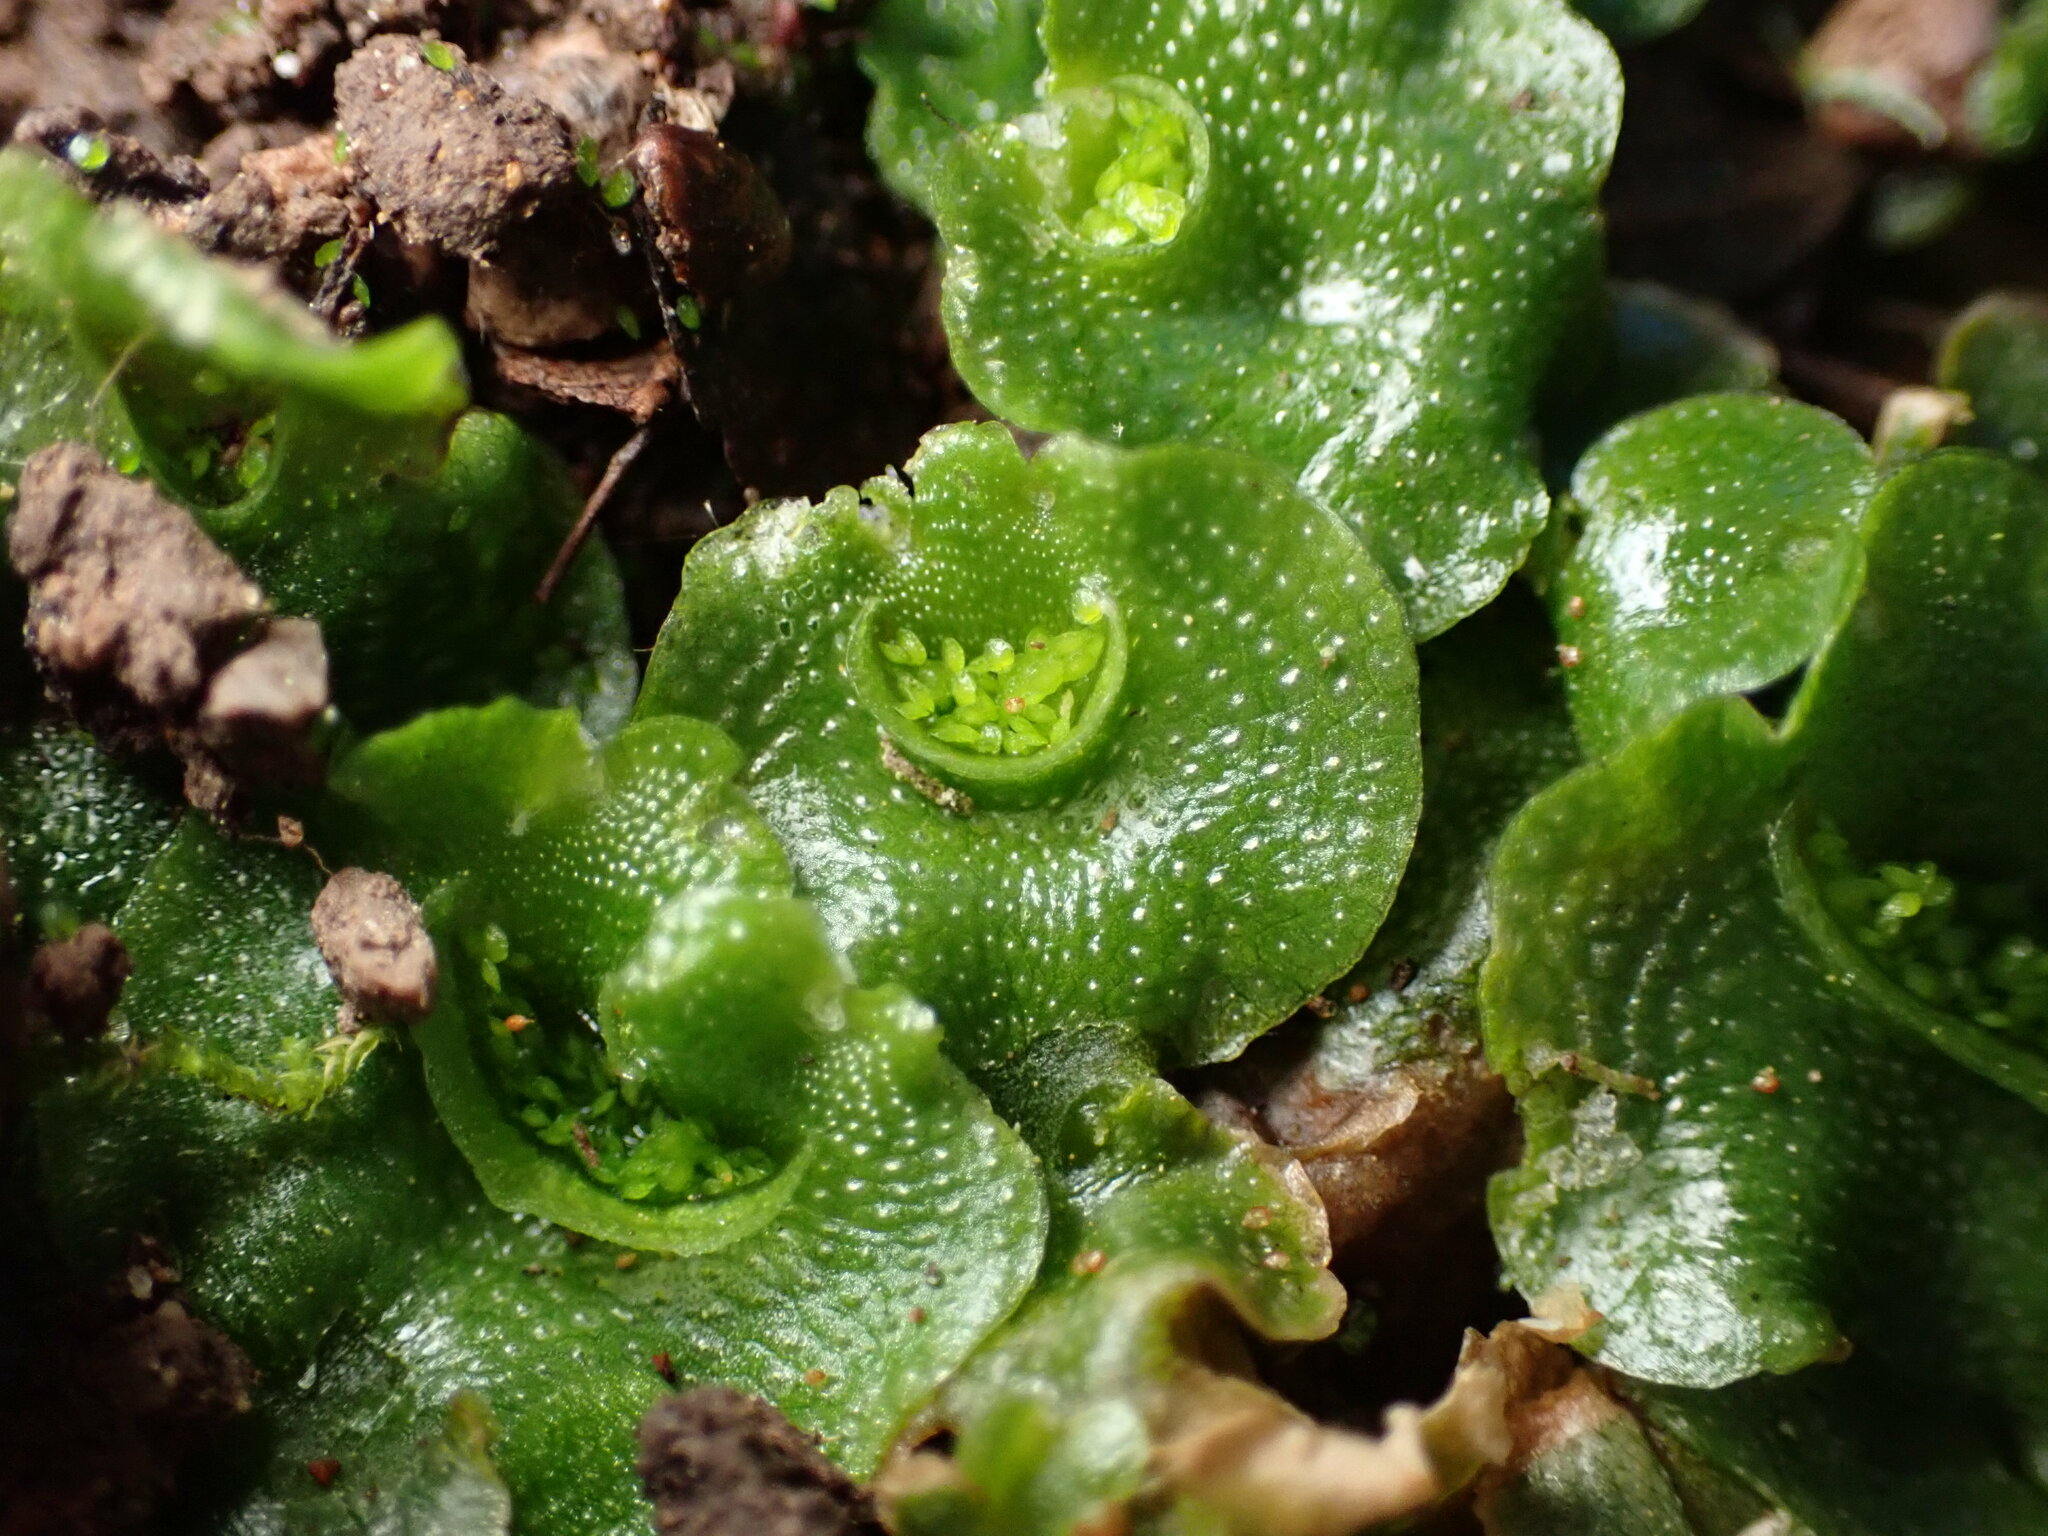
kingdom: Plantae
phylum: Marchantiophyta
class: Marchantiopsida
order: Lunulariales
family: Lunulariaceae
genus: Lunularia
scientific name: Lunularia cruciata
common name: Crescent-cup liverwort
